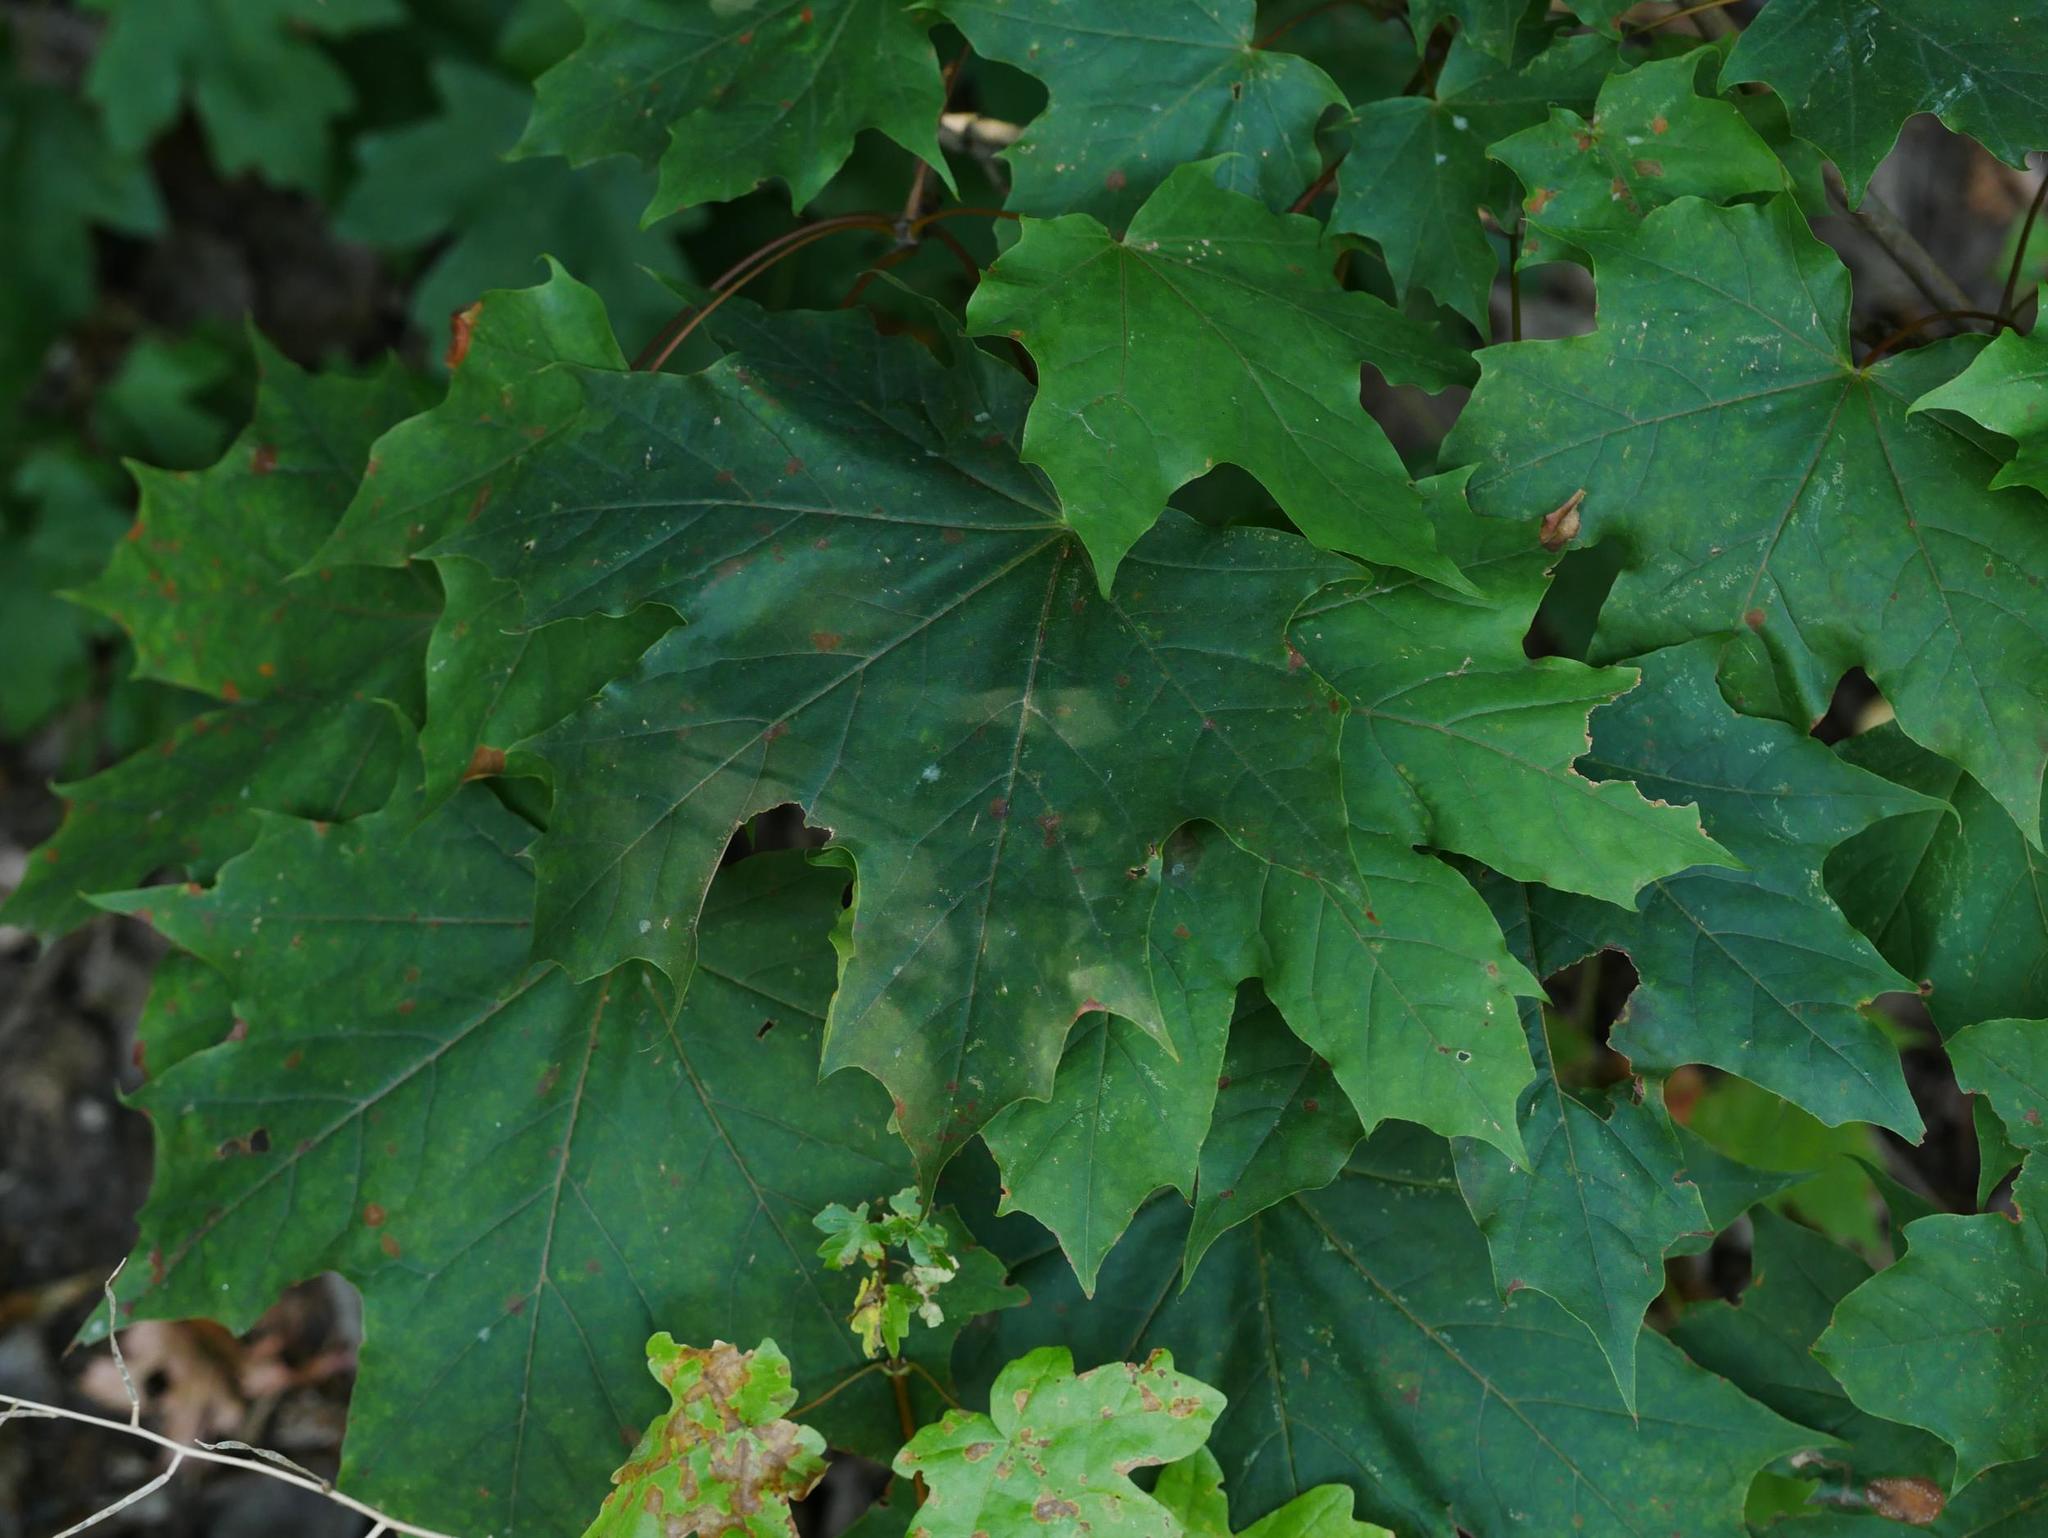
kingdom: Plantae
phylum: Tracheophyta
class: Magnoliopsida
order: Sapindales
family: Sapindaceae
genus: Acer
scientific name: Acer platanoides
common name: Norway maple
